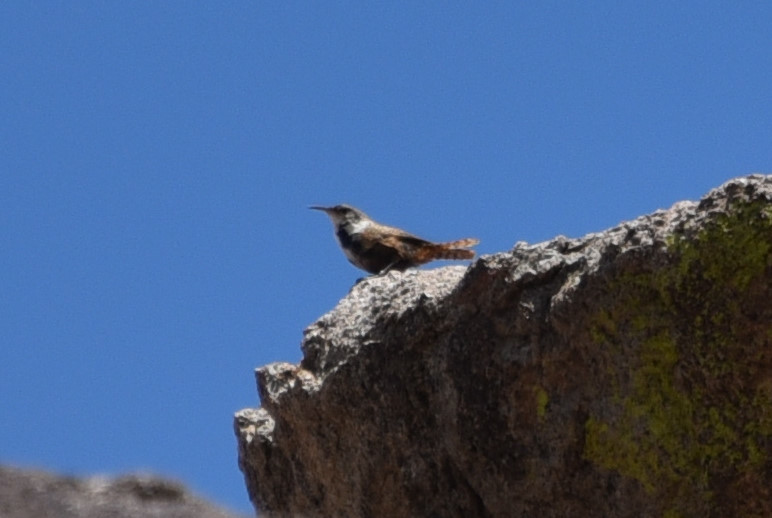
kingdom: Animalia
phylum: Chordata
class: Aves
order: Passeriformes
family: Troglodytidae
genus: Catherpes
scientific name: Catherpes mexicanus
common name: Canyon wren
